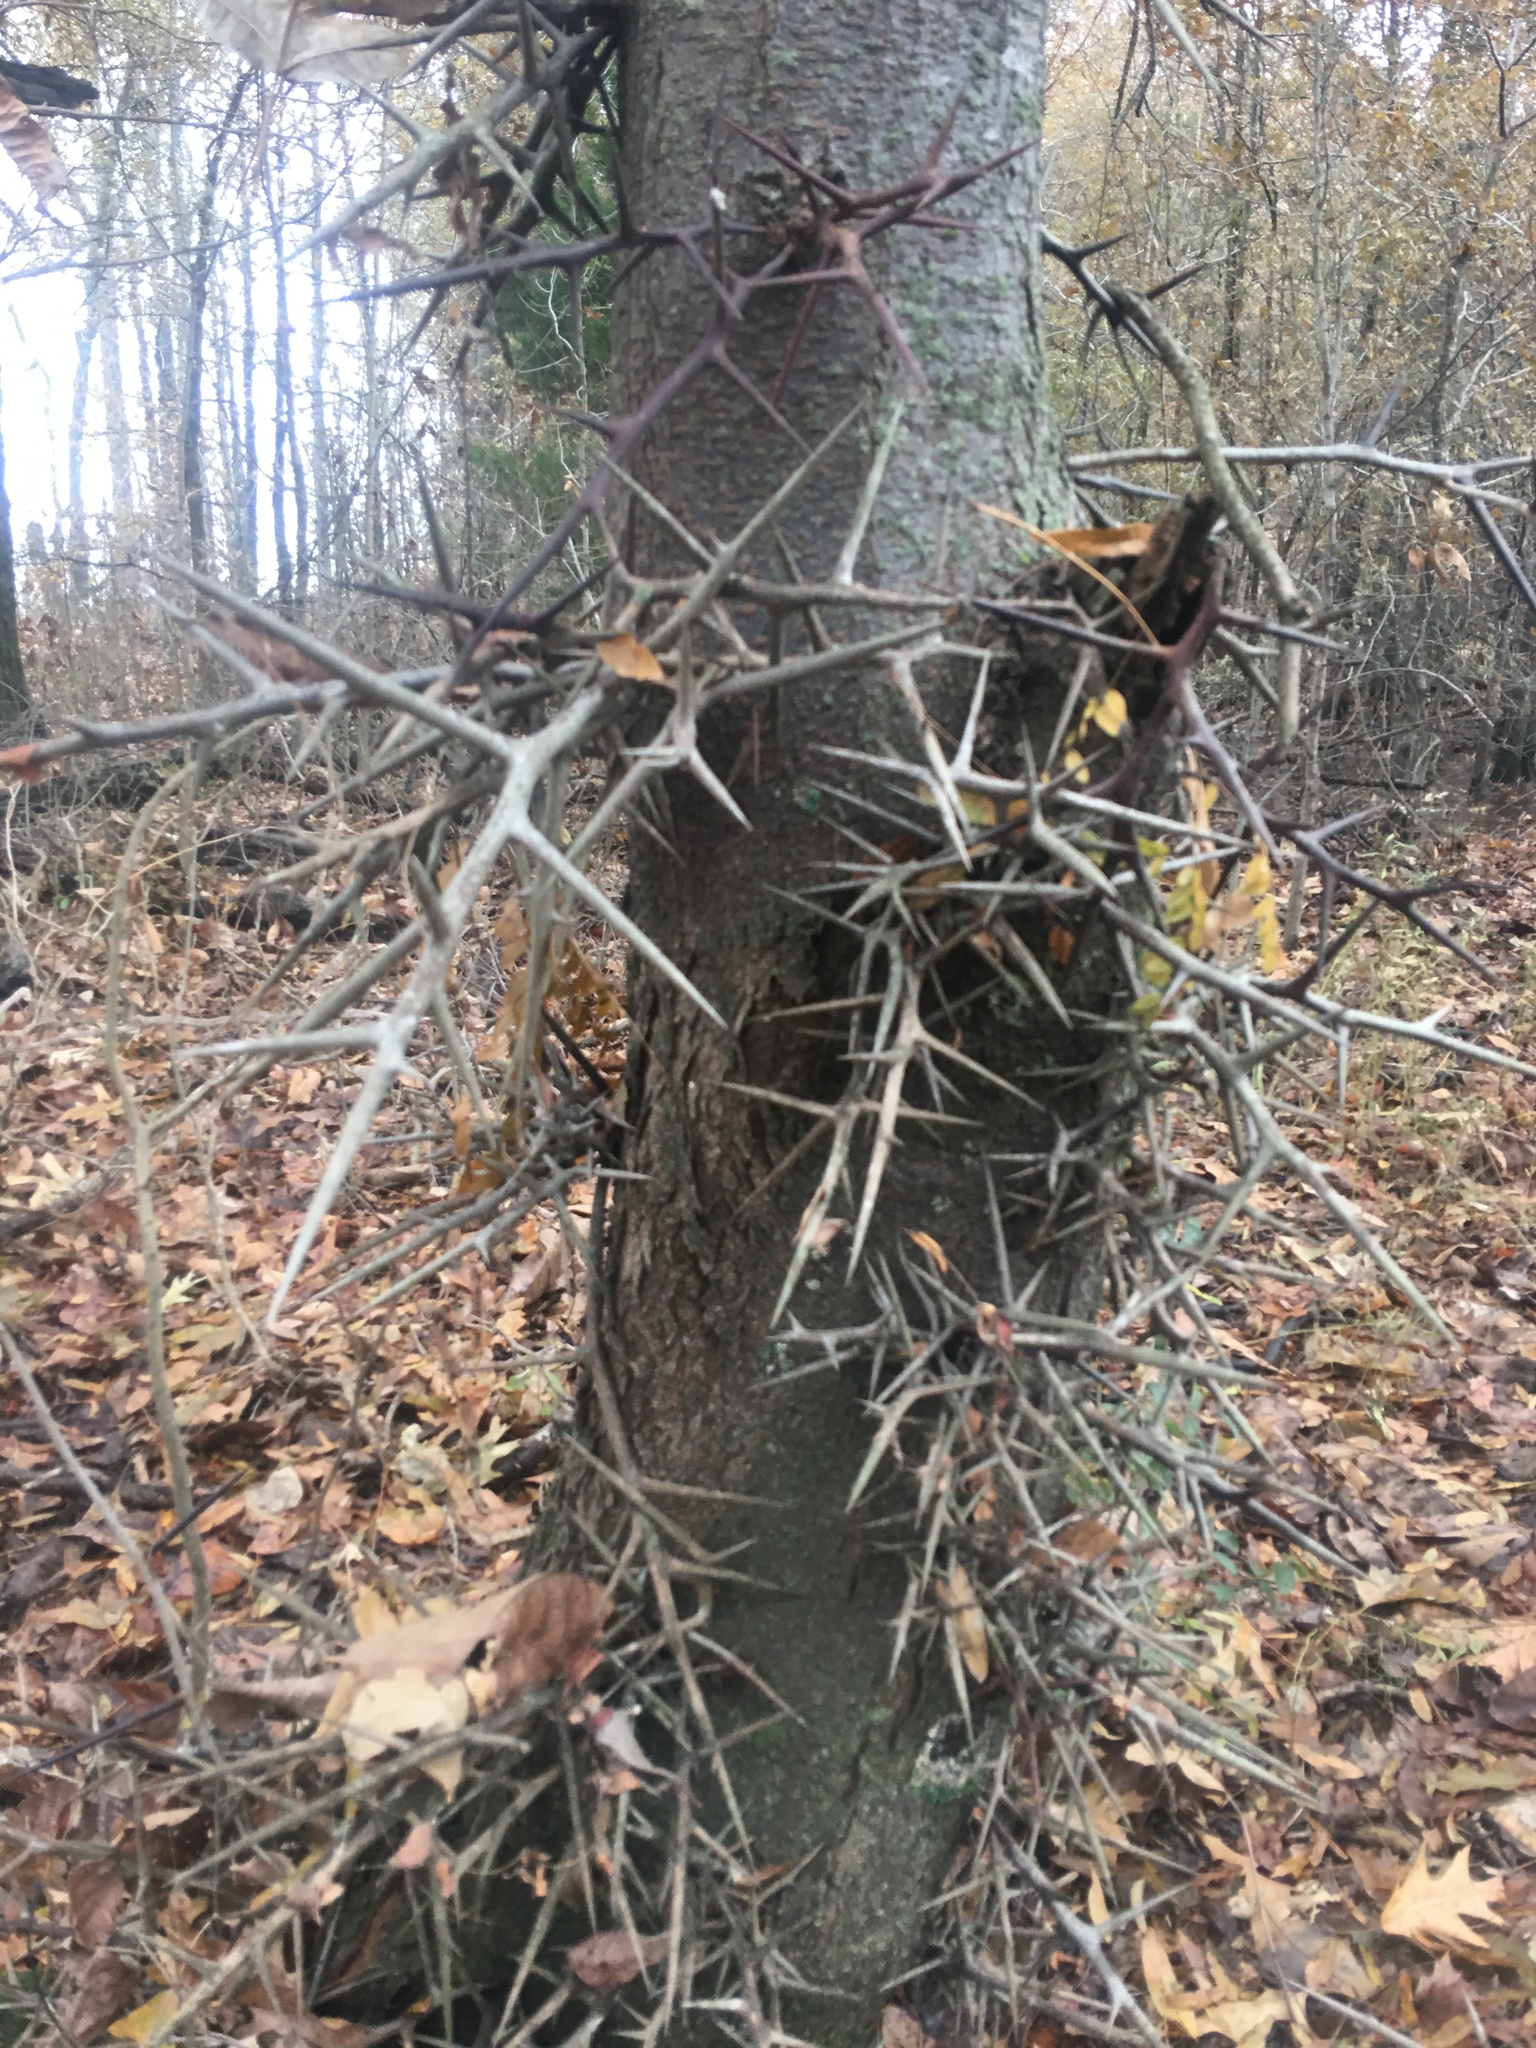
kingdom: Plantae
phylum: Tracheophyta
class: Magnoliopsida
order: Fabales
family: Fabaceae
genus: Gleditsia
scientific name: Gleditsia triacanthos
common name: Common honeylocust
